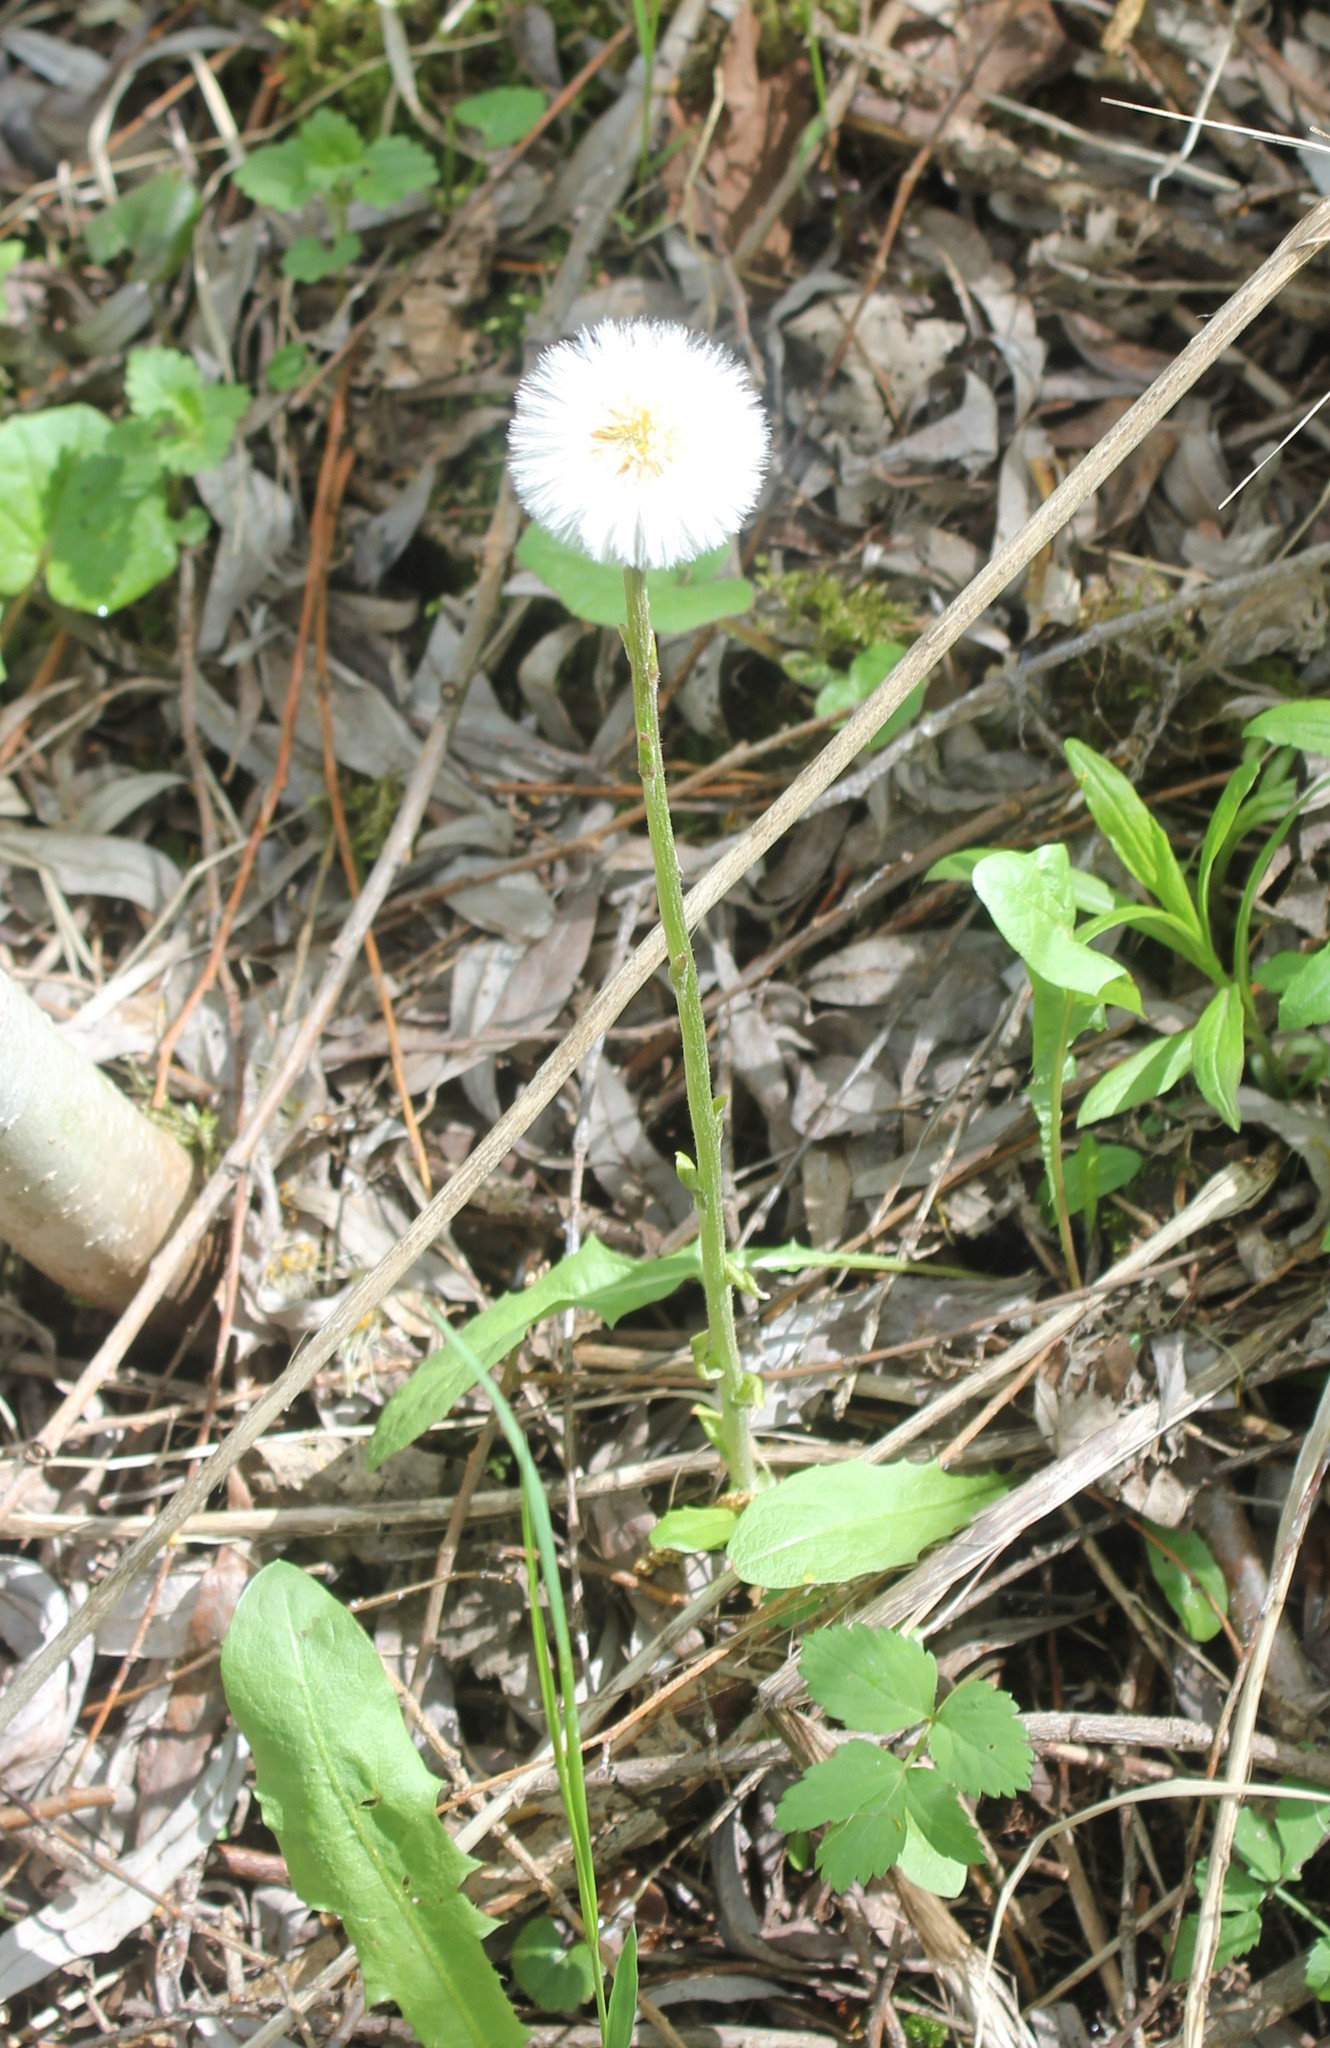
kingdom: Plantae
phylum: Tracheophyta
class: Magnoliopsida
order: Asterales
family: Asteraceae
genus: Tussilago
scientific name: Tussilago farfara
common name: Coltsfoot
